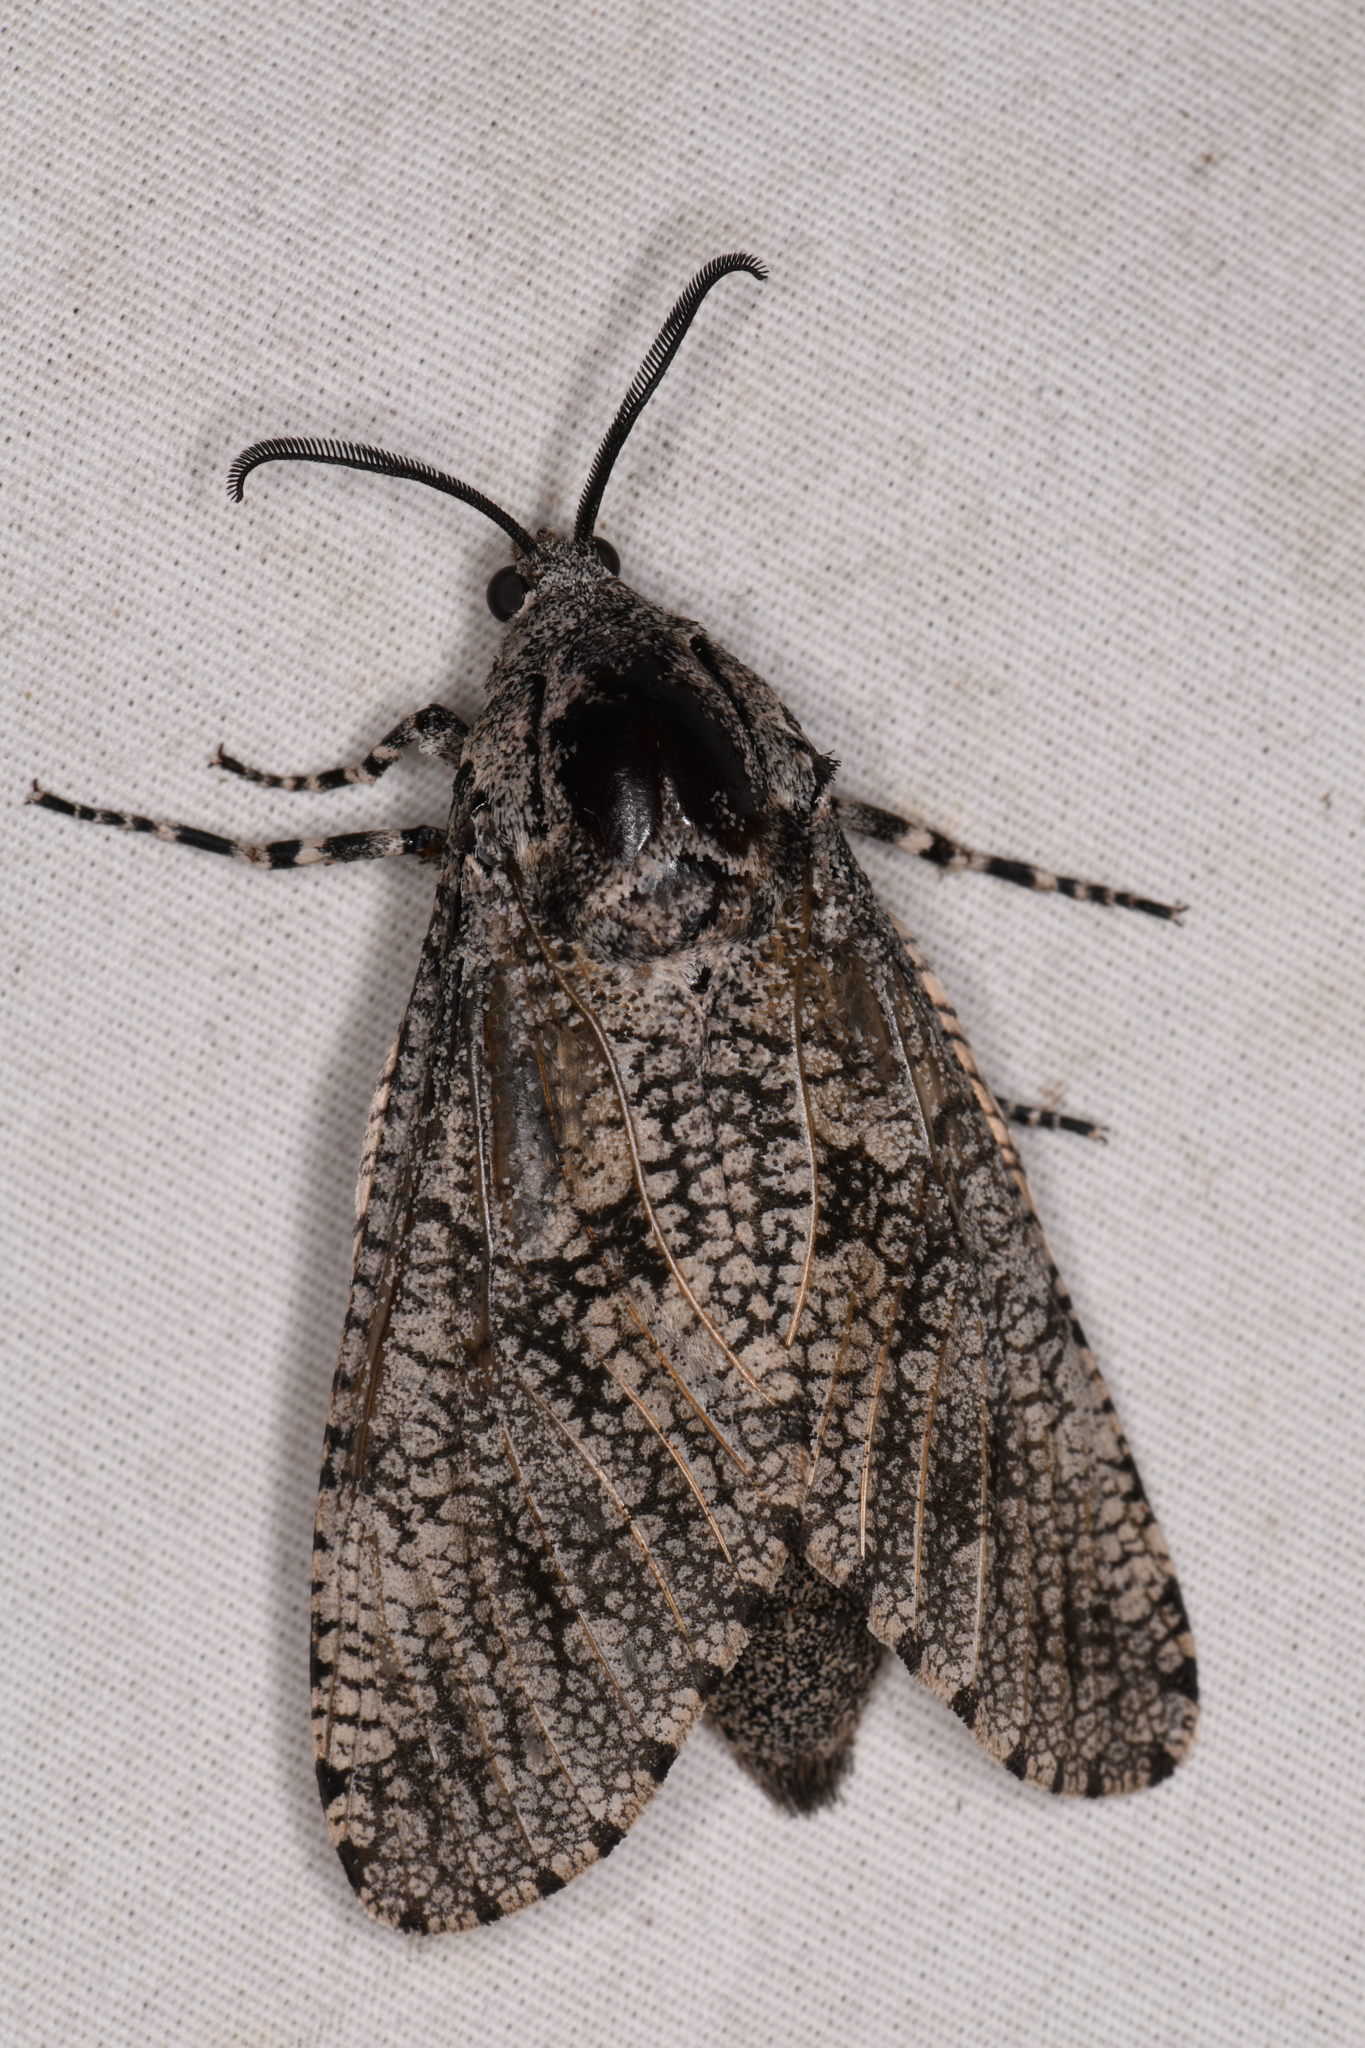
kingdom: Animalia
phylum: Arthropoda
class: Insecta
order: Lepidoptera
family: Cossidae
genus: Prionoxystus
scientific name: Prionoxystus robiniae
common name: Carpenterworm
